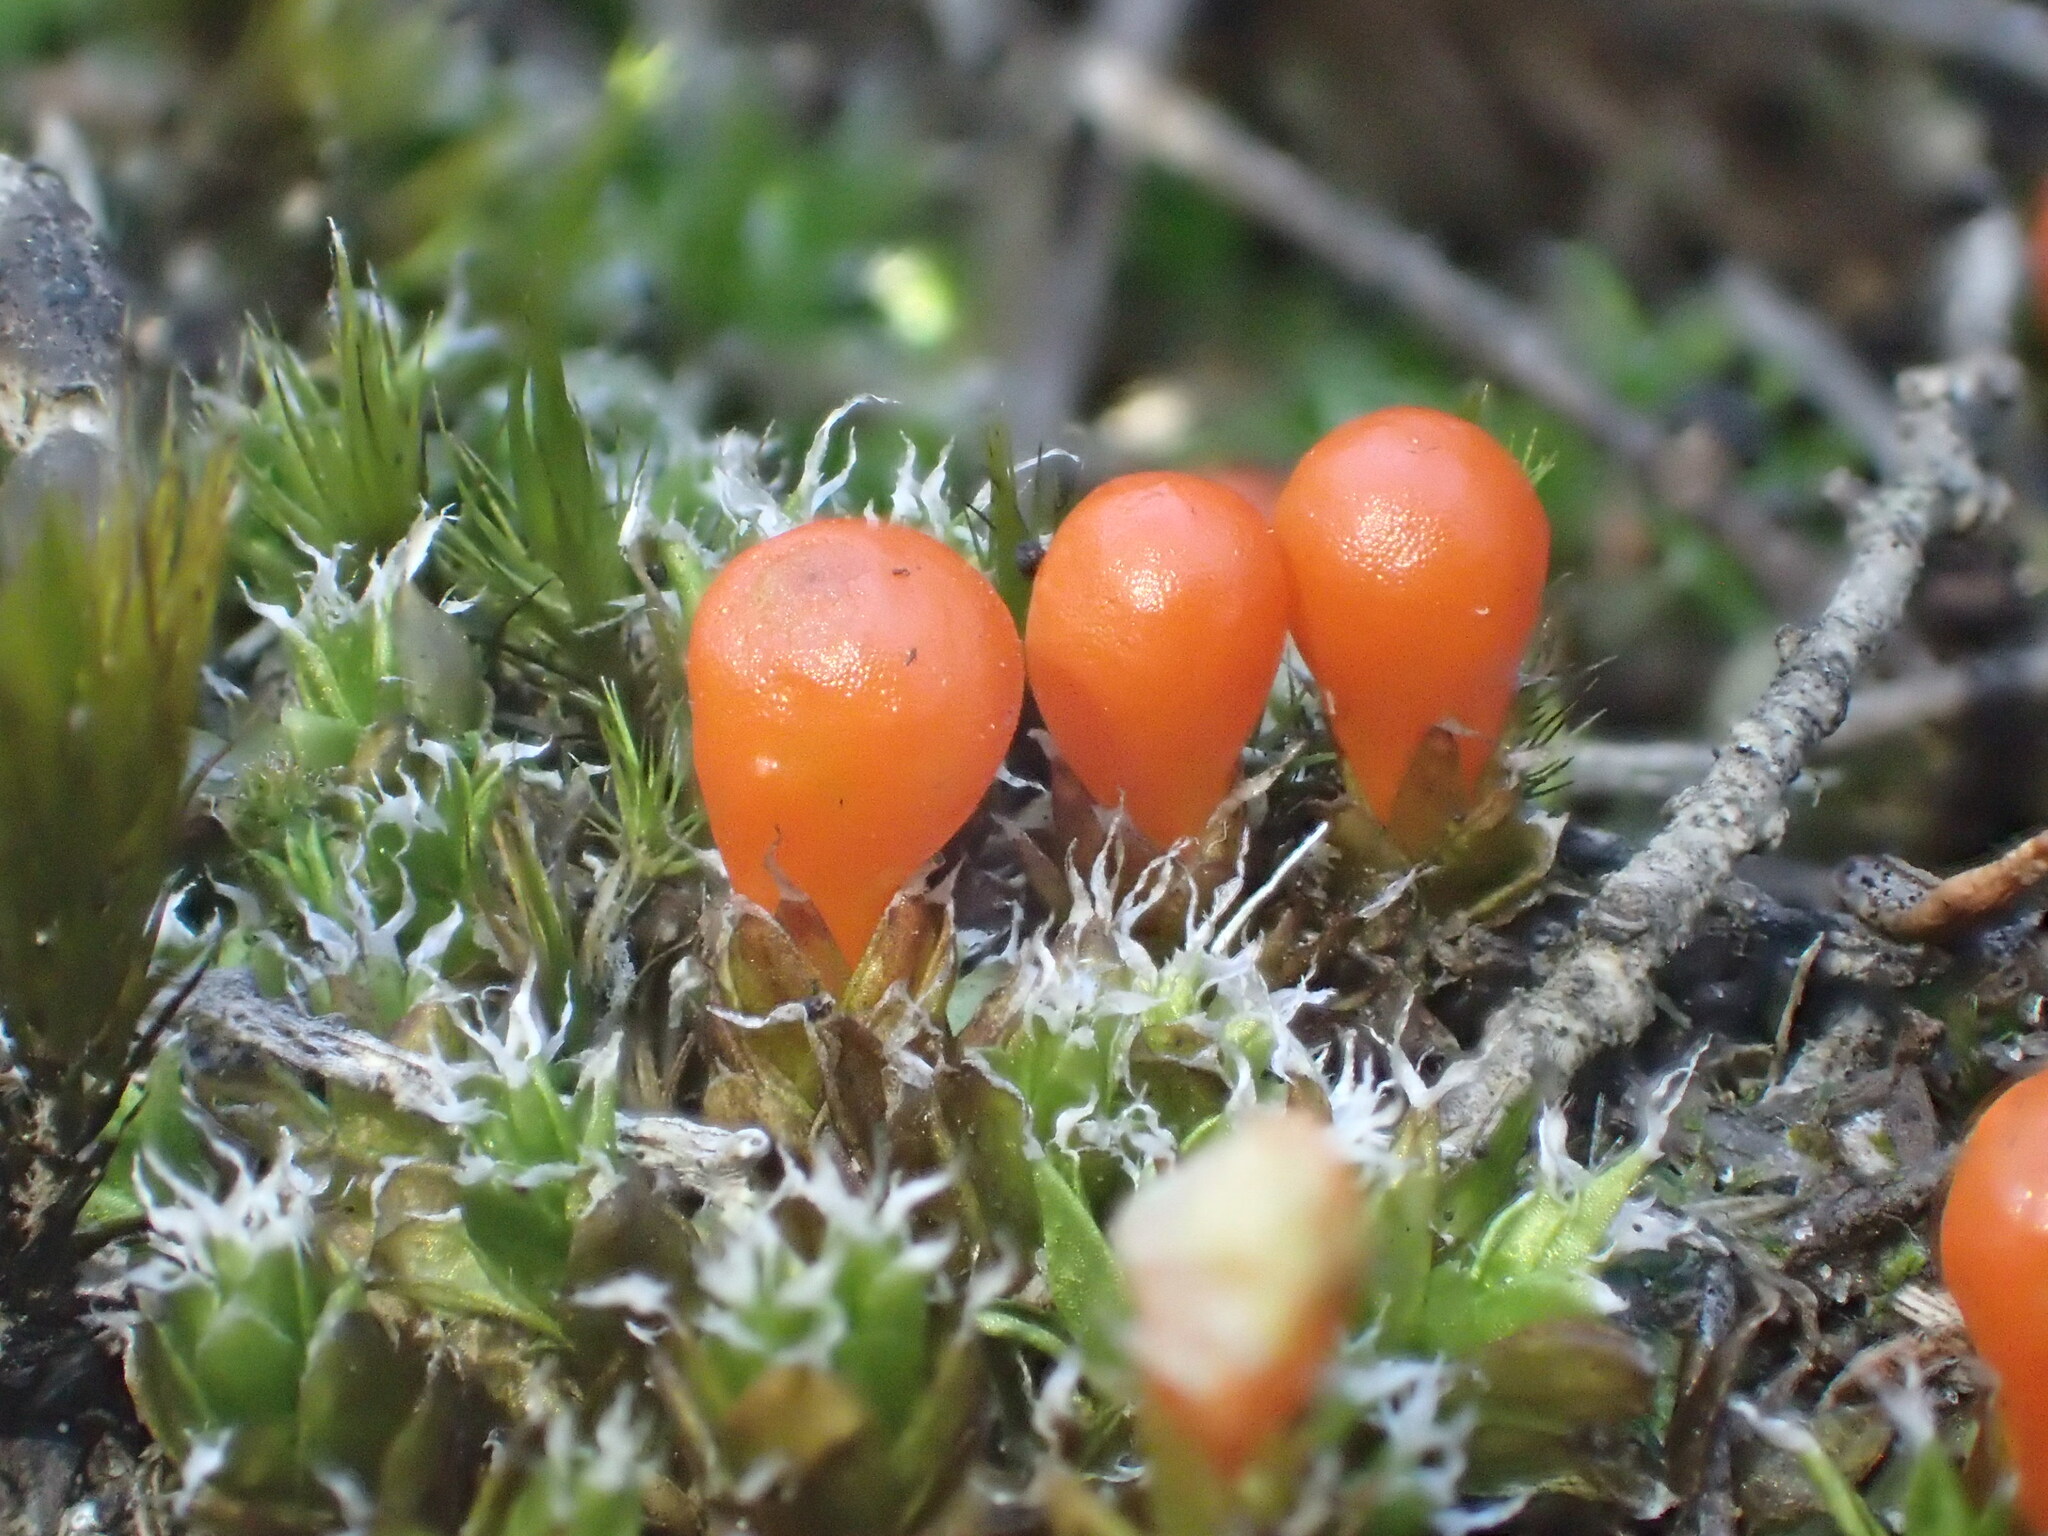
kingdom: Plantae
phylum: Bryophyta
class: Bryopsida
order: Pottiales
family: Pleurophascaceae
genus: Pleurophascum
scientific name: Pleurophascum occidentale
